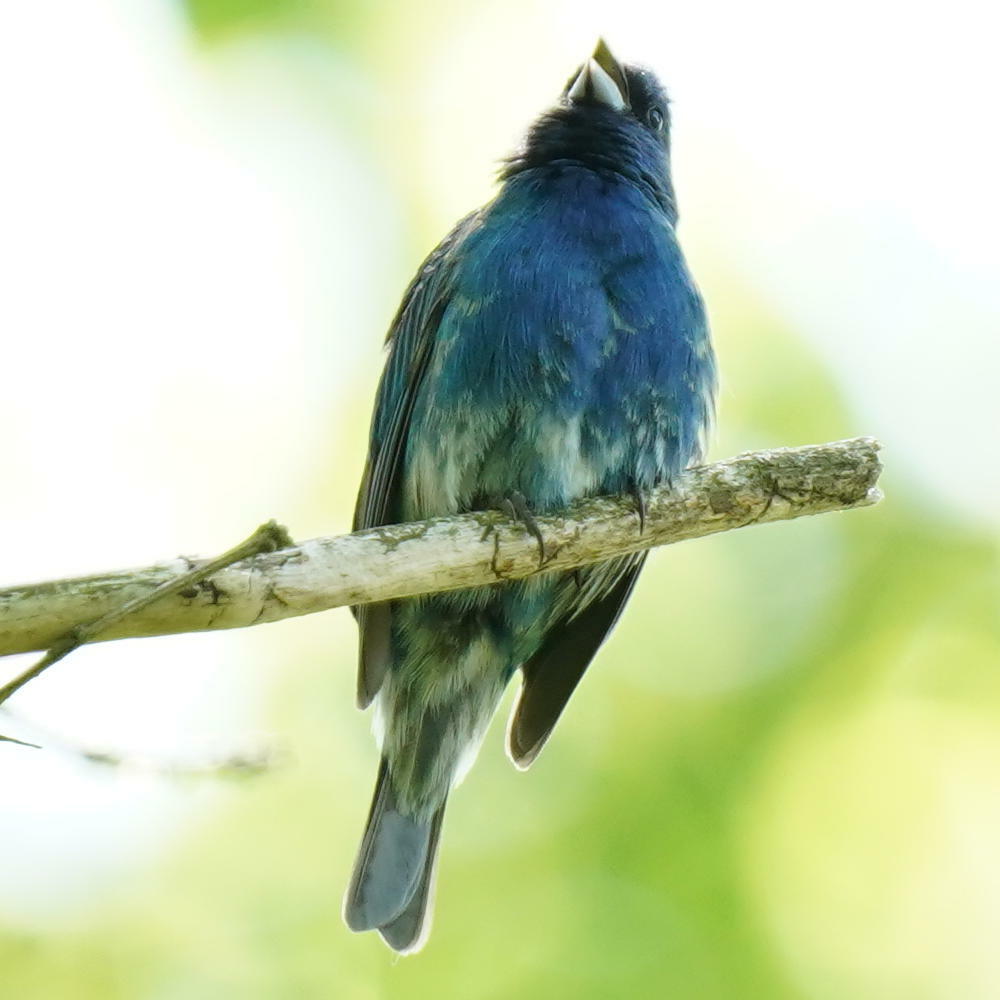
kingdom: Animalia
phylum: Chordata
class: Aves
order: Passeriformes
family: Cardinalidae
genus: Passerina
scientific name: Passerina cyanea
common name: Indigo bunting
